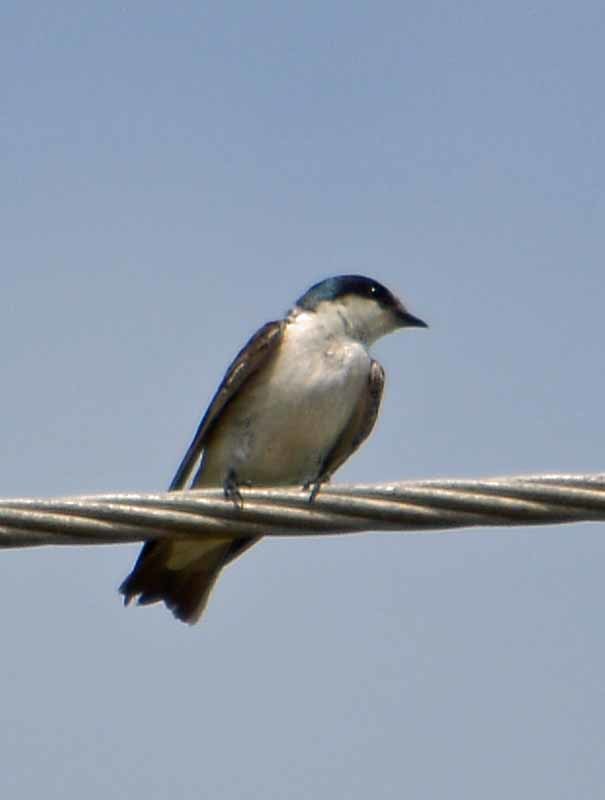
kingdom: Animalia
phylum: Chordata
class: Aves
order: Passeriformes
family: Hirundinidae
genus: Tachycineta
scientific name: Tachycineta albilinea
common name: Mangrove swallow
